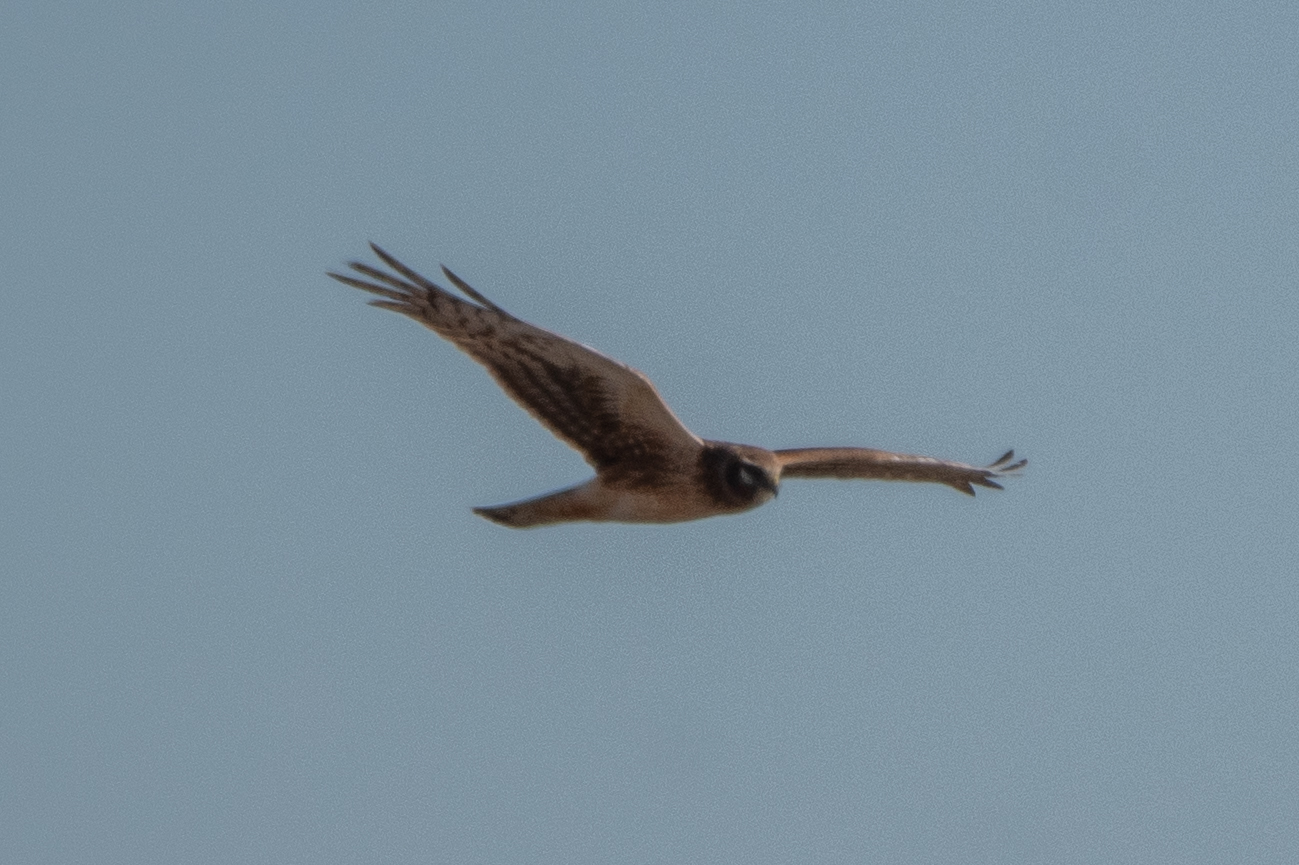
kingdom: Animalia
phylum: Chordata
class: Aves
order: Accipitriformes
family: Accipitridae
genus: Circus
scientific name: Circus cyaneus
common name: Hen harrier
